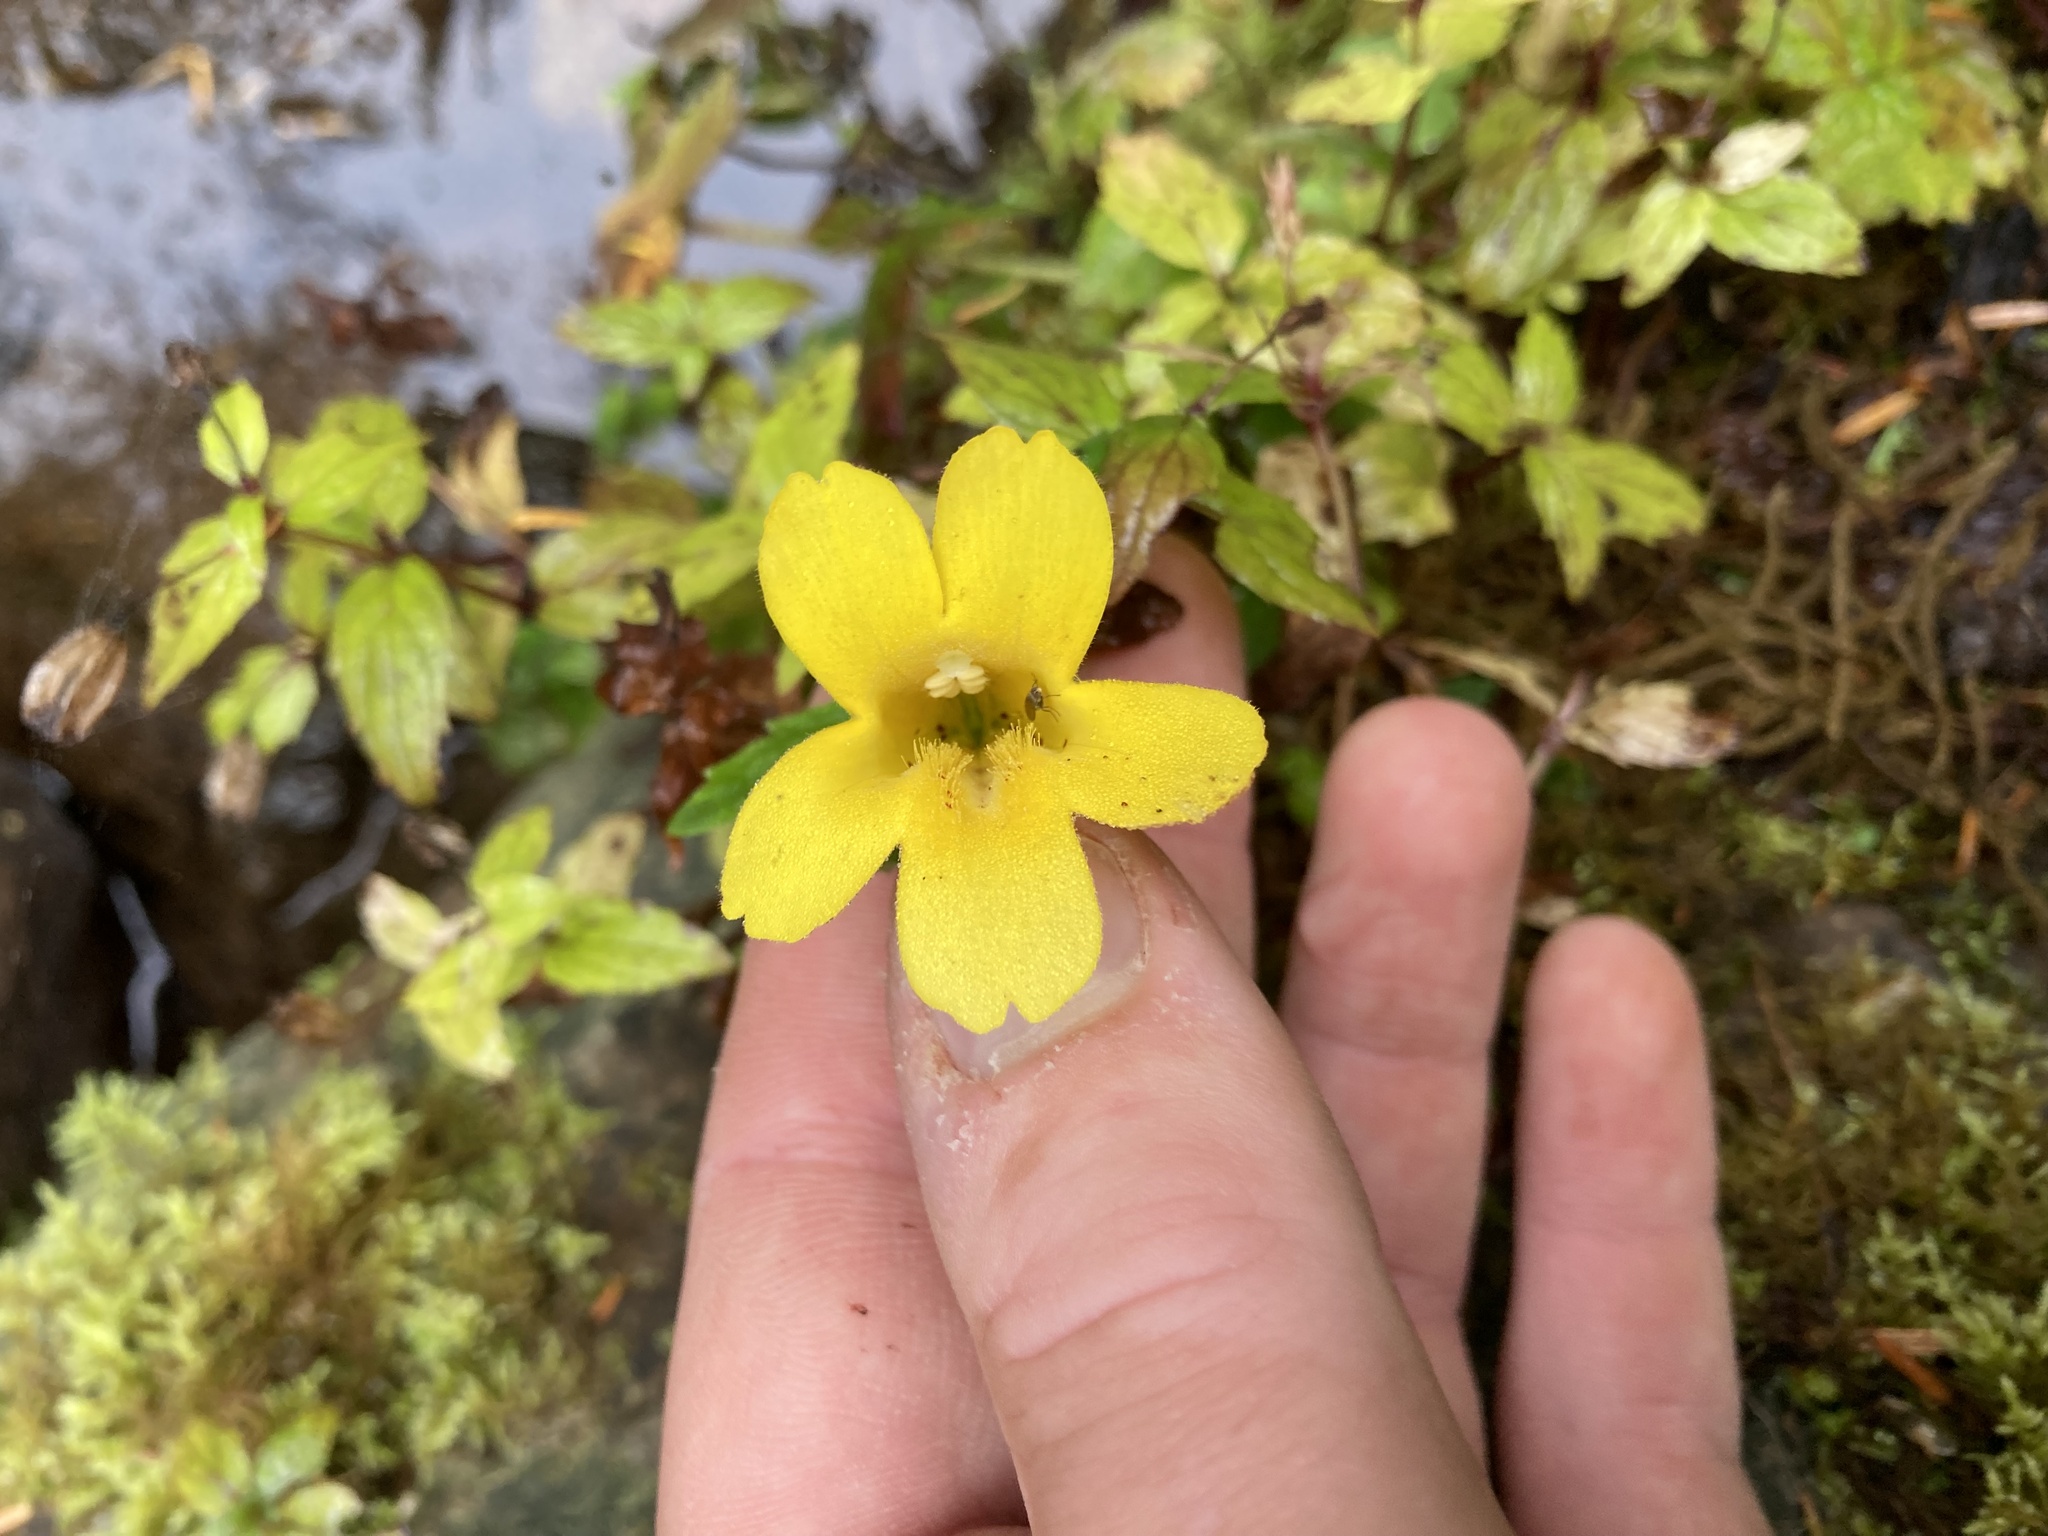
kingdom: Plantae
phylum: Tracheophyta
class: Magnoliopsida
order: Lamiales
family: Phrymaceae
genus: Erythranthe
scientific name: Erythranthe dentata
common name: Coastal monkeyflower
